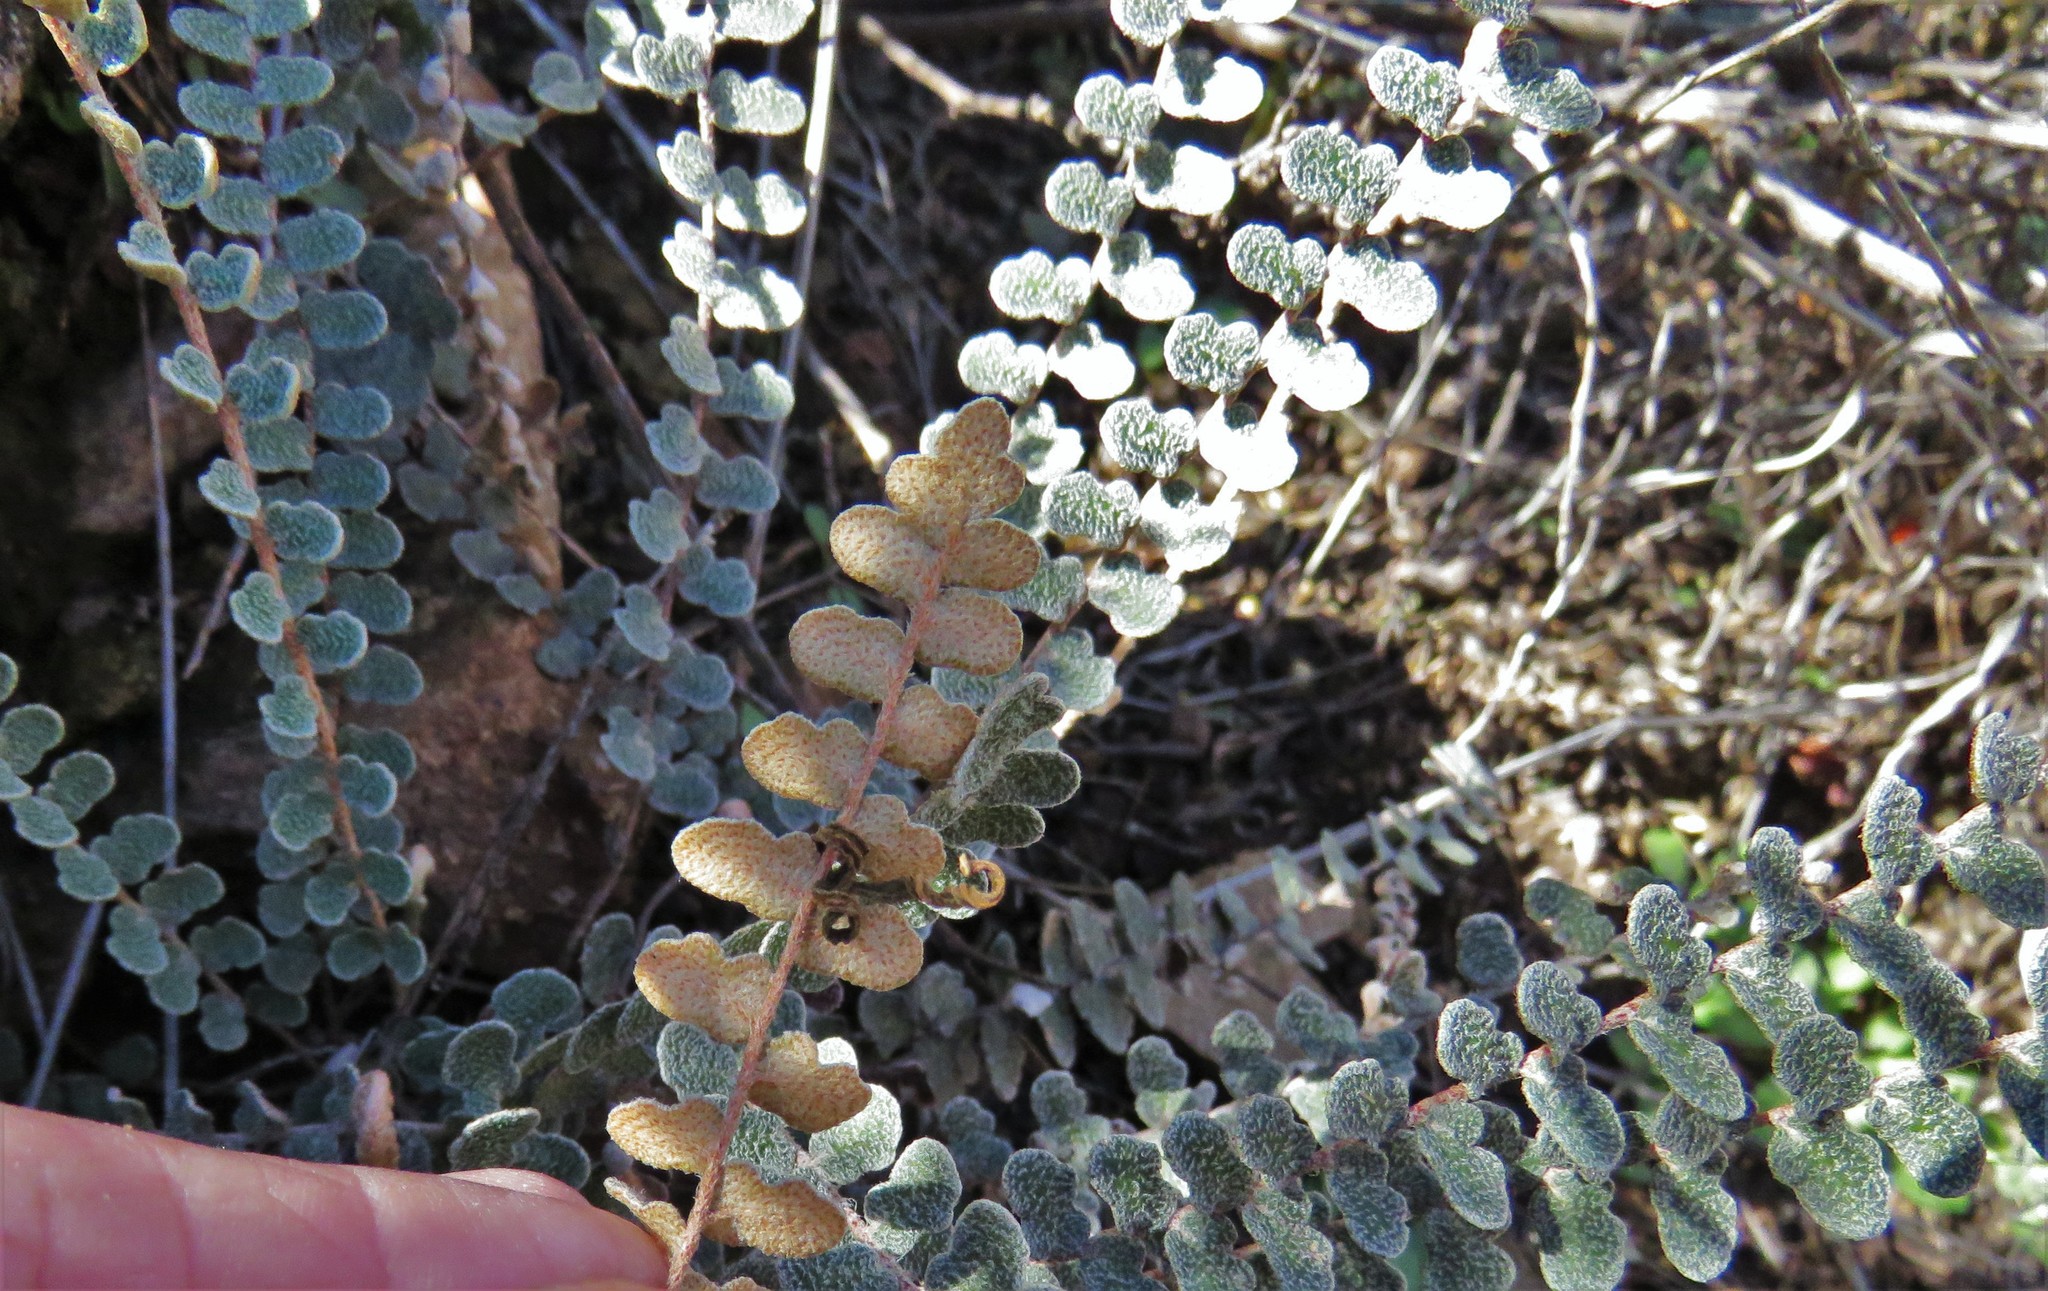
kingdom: Plantae
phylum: Tracheophyta
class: Polypodiopsida
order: Polypodiales
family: Pteridaceae
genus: Astrolepis
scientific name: Astrolepis cochisensis
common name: Scaly cloak fern
